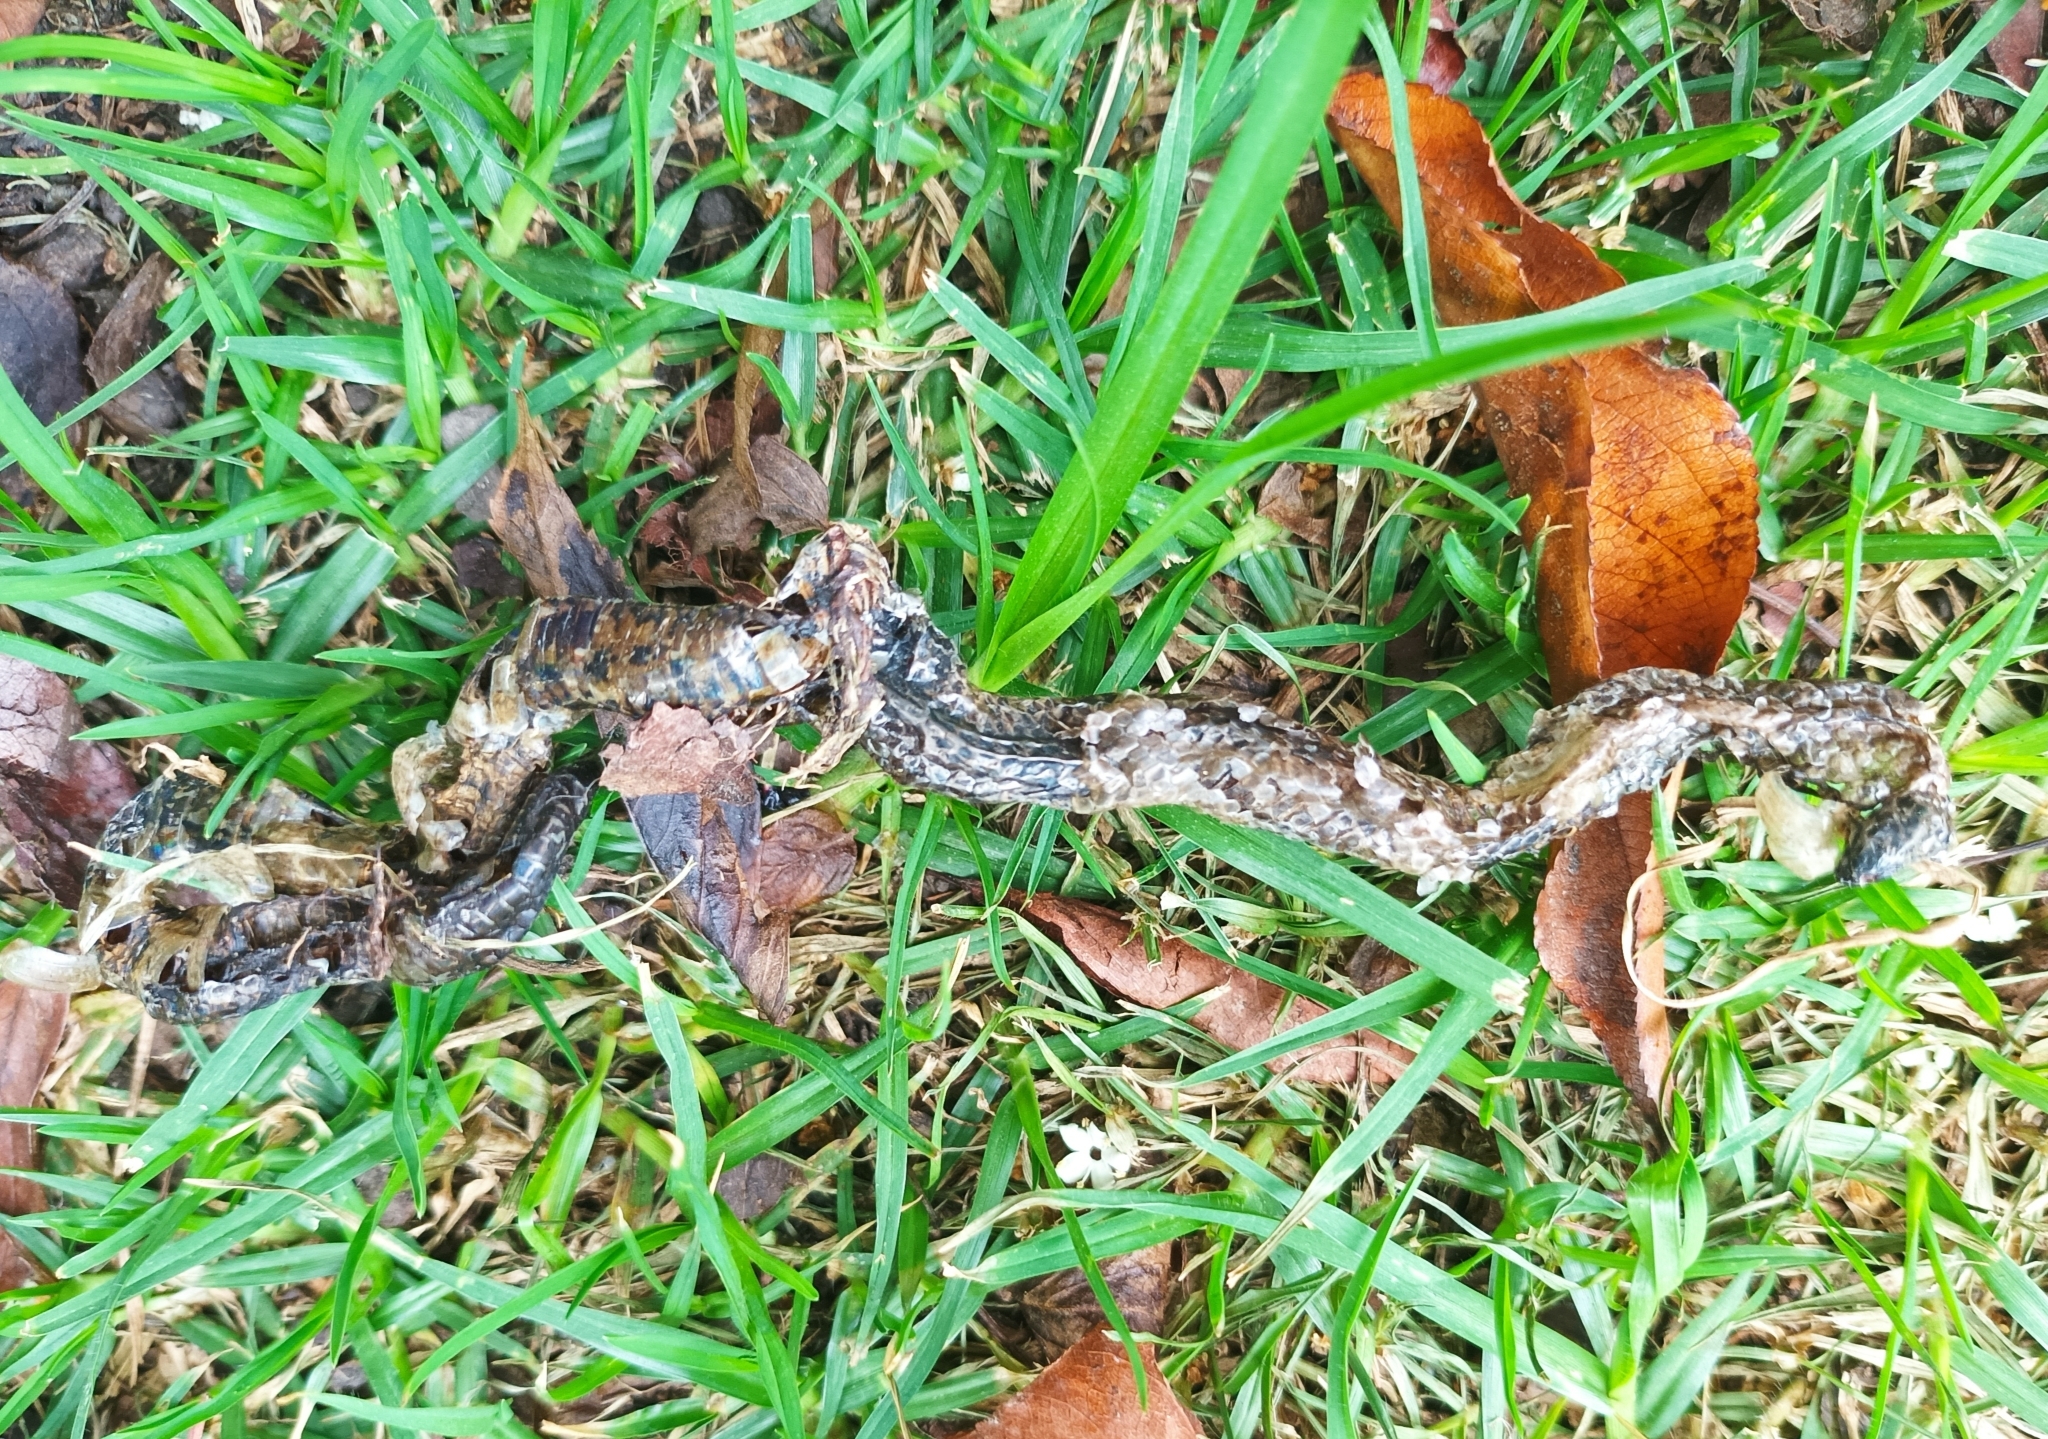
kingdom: Animalia
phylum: Chordata
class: Squamata
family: Colubridae
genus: Atractus
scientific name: Atractus crassicaudatus
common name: Thickhead ground snake
